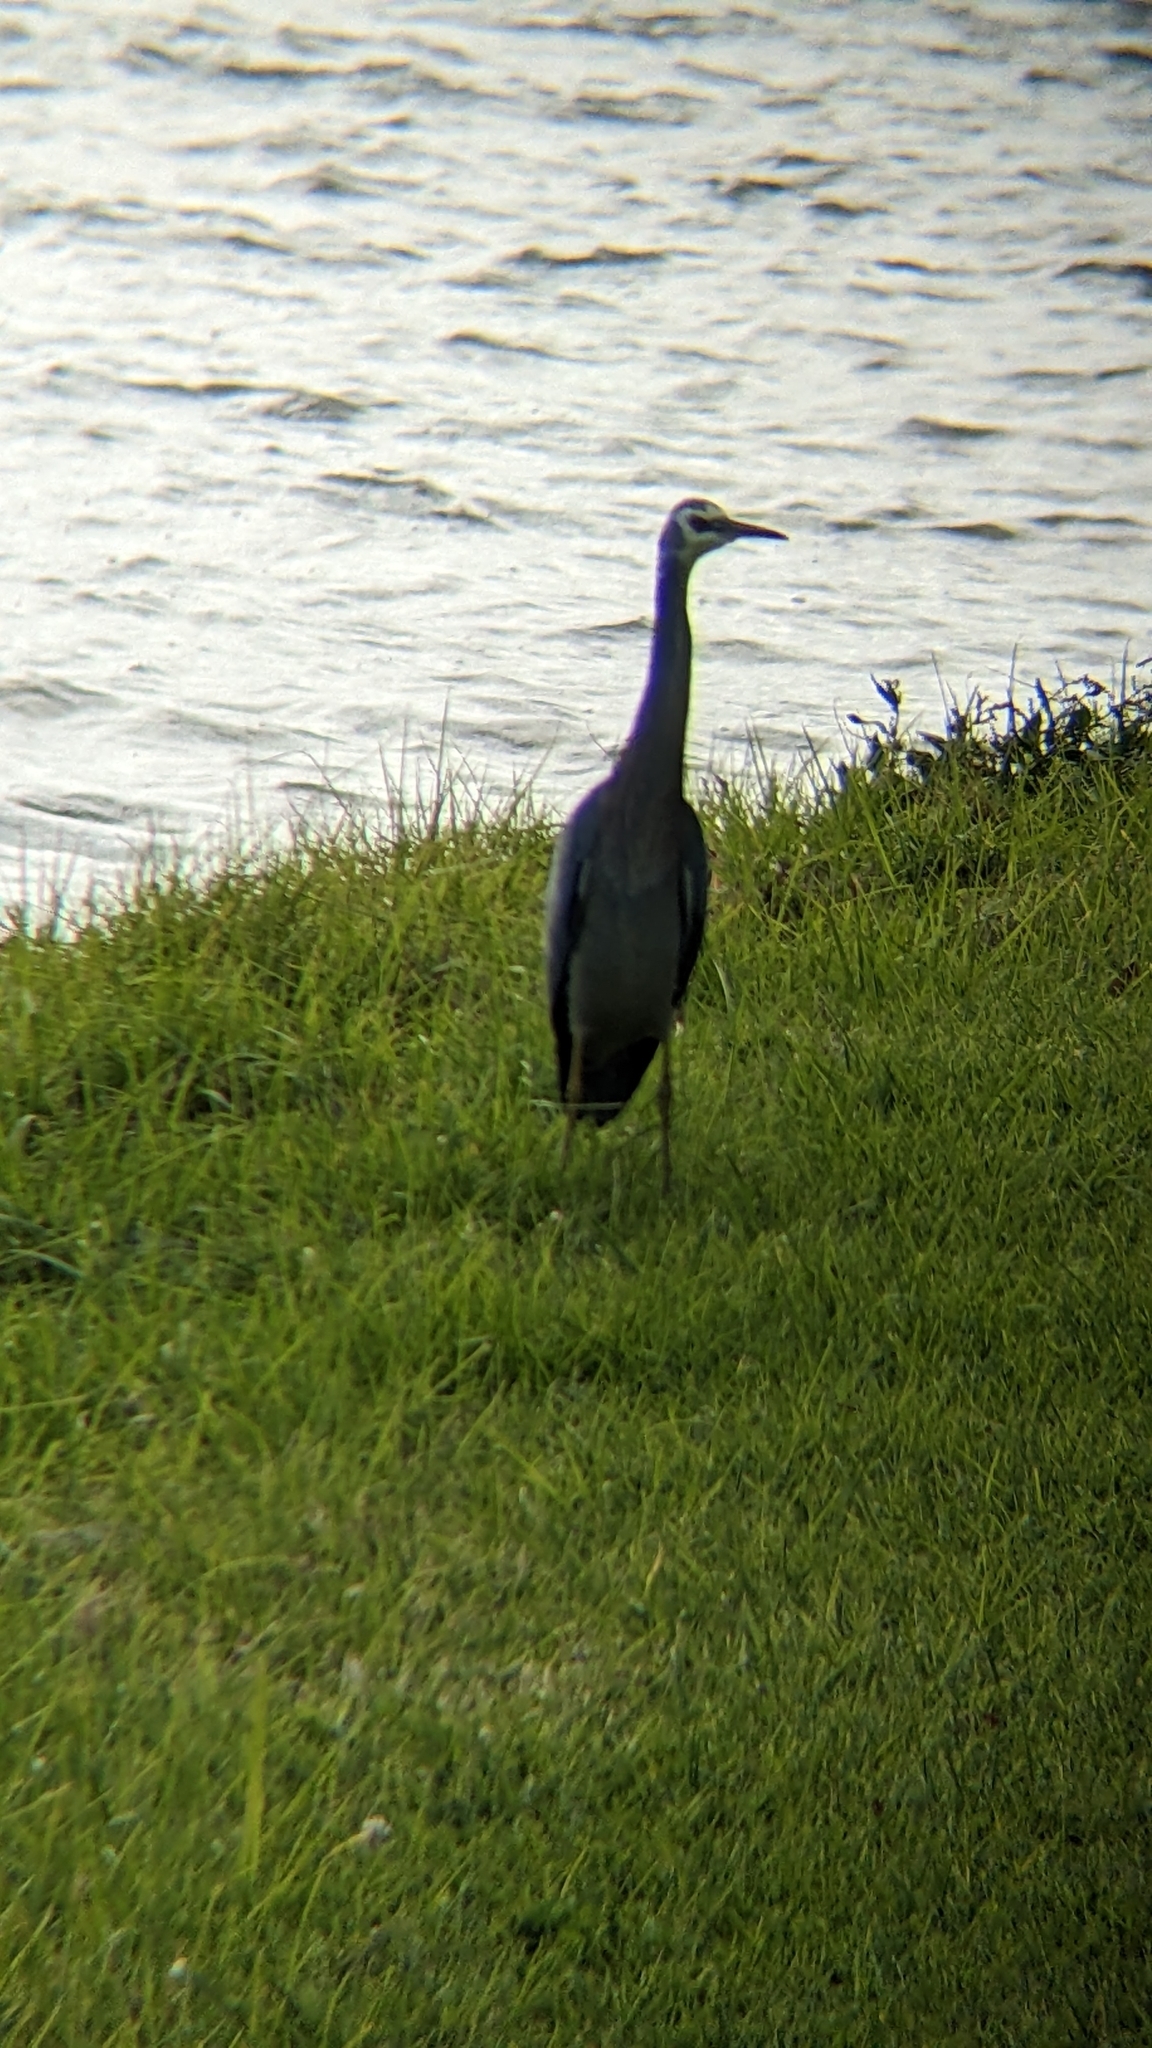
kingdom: Animalia
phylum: Chordata
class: Aves
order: Pelecaniformes
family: Ardeidae
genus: Egretta
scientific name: Egretta novaehollandiae
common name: White-faced heron
